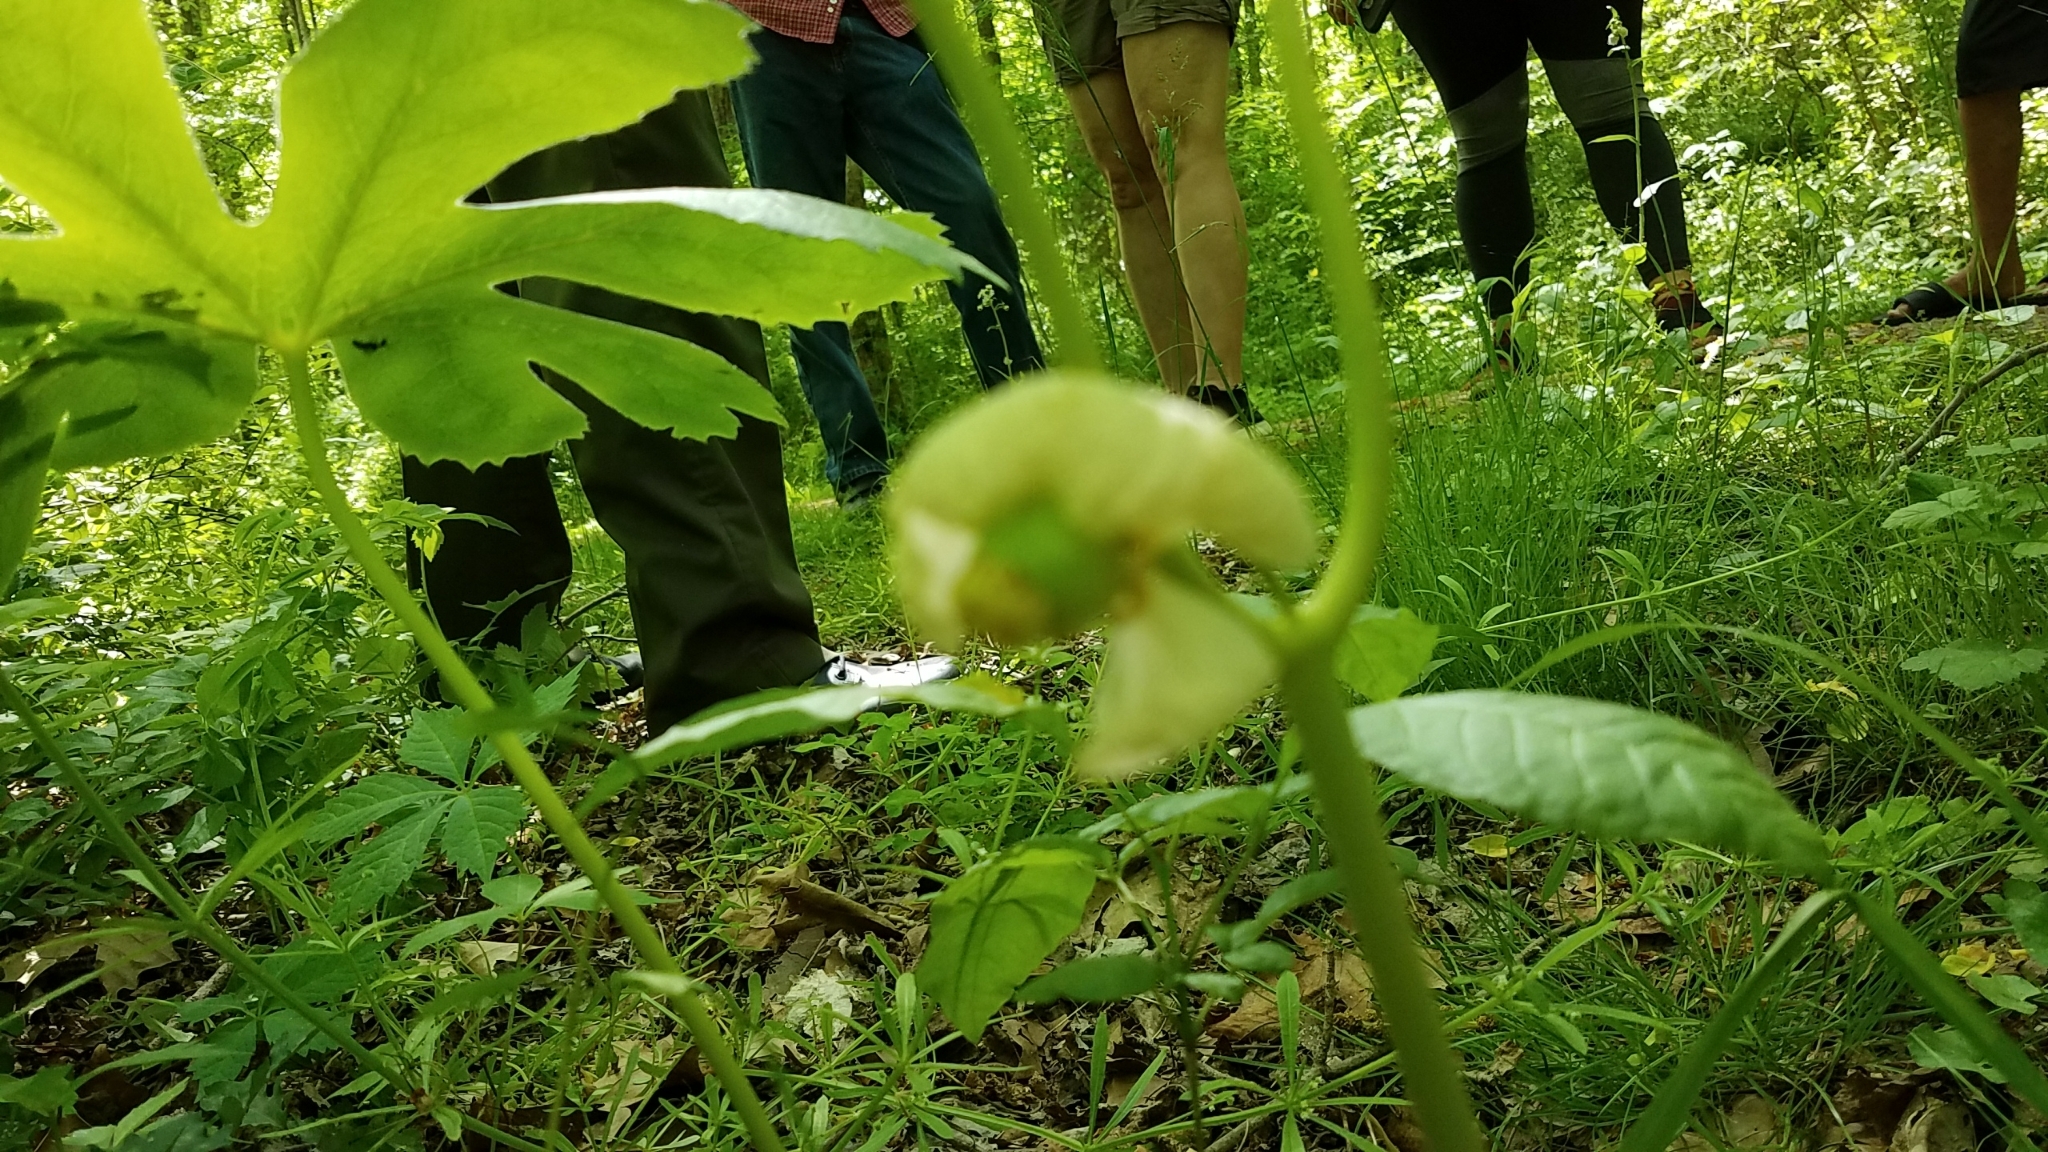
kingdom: Plantae
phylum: Tracheophyta
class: Magnoliopsida
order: Ranunculales
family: Berberidaceae
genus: Podophyllum
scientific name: Podophyllum peltatum
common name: Wild mandrake
